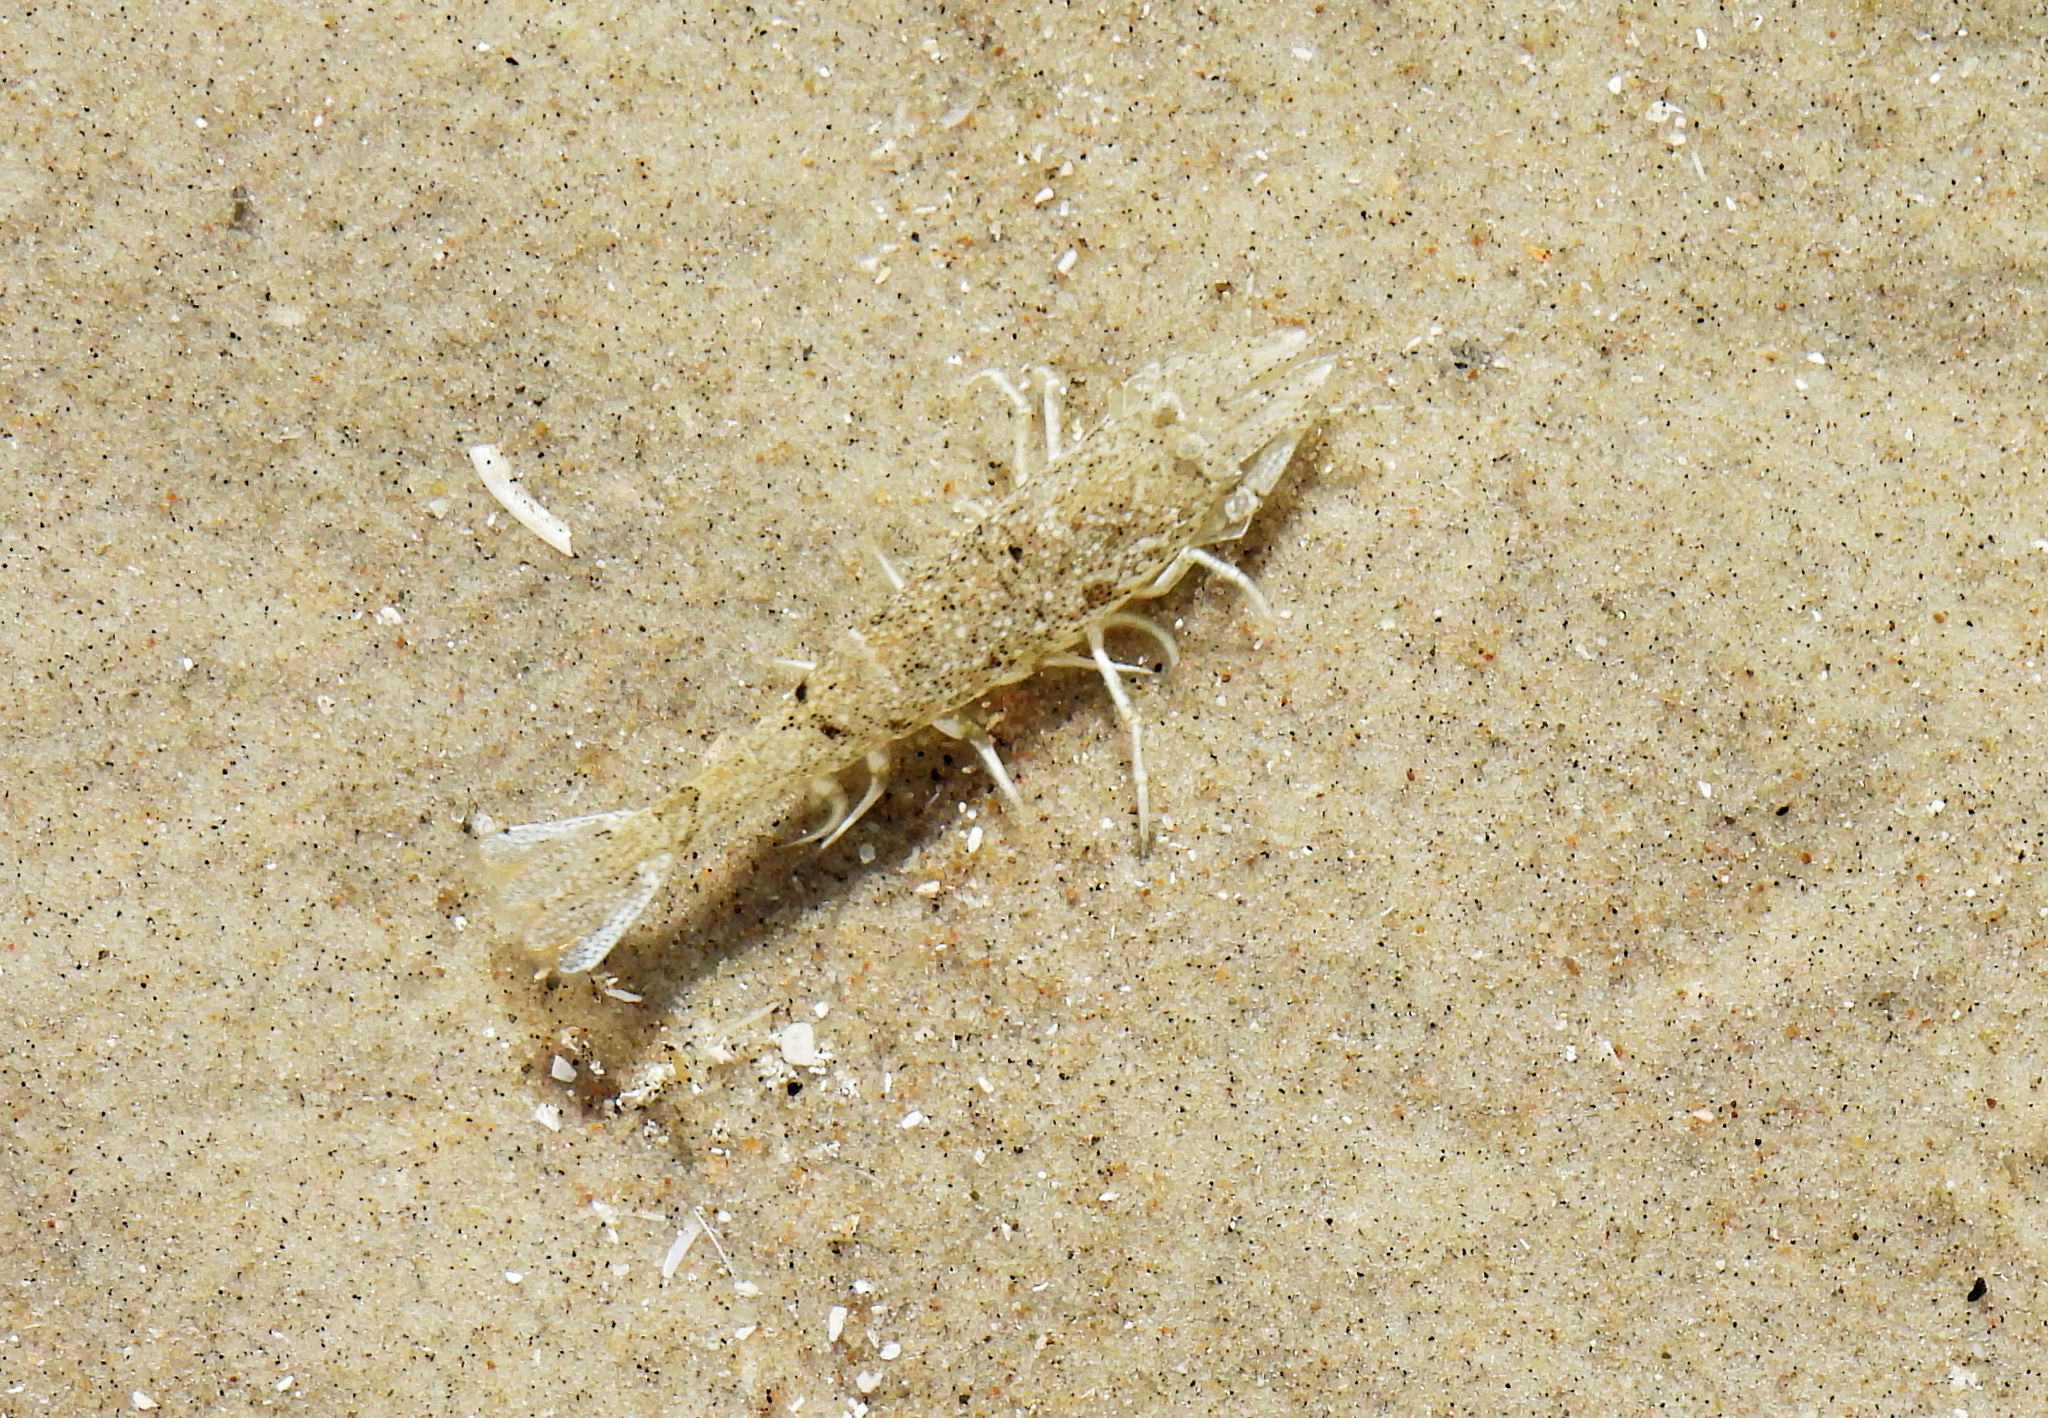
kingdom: Animalia
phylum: Arthropoda
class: Malacostraca
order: Decapoda
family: Crangonidae
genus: Crangon
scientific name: Crangon crangon
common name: Brown shrimp
